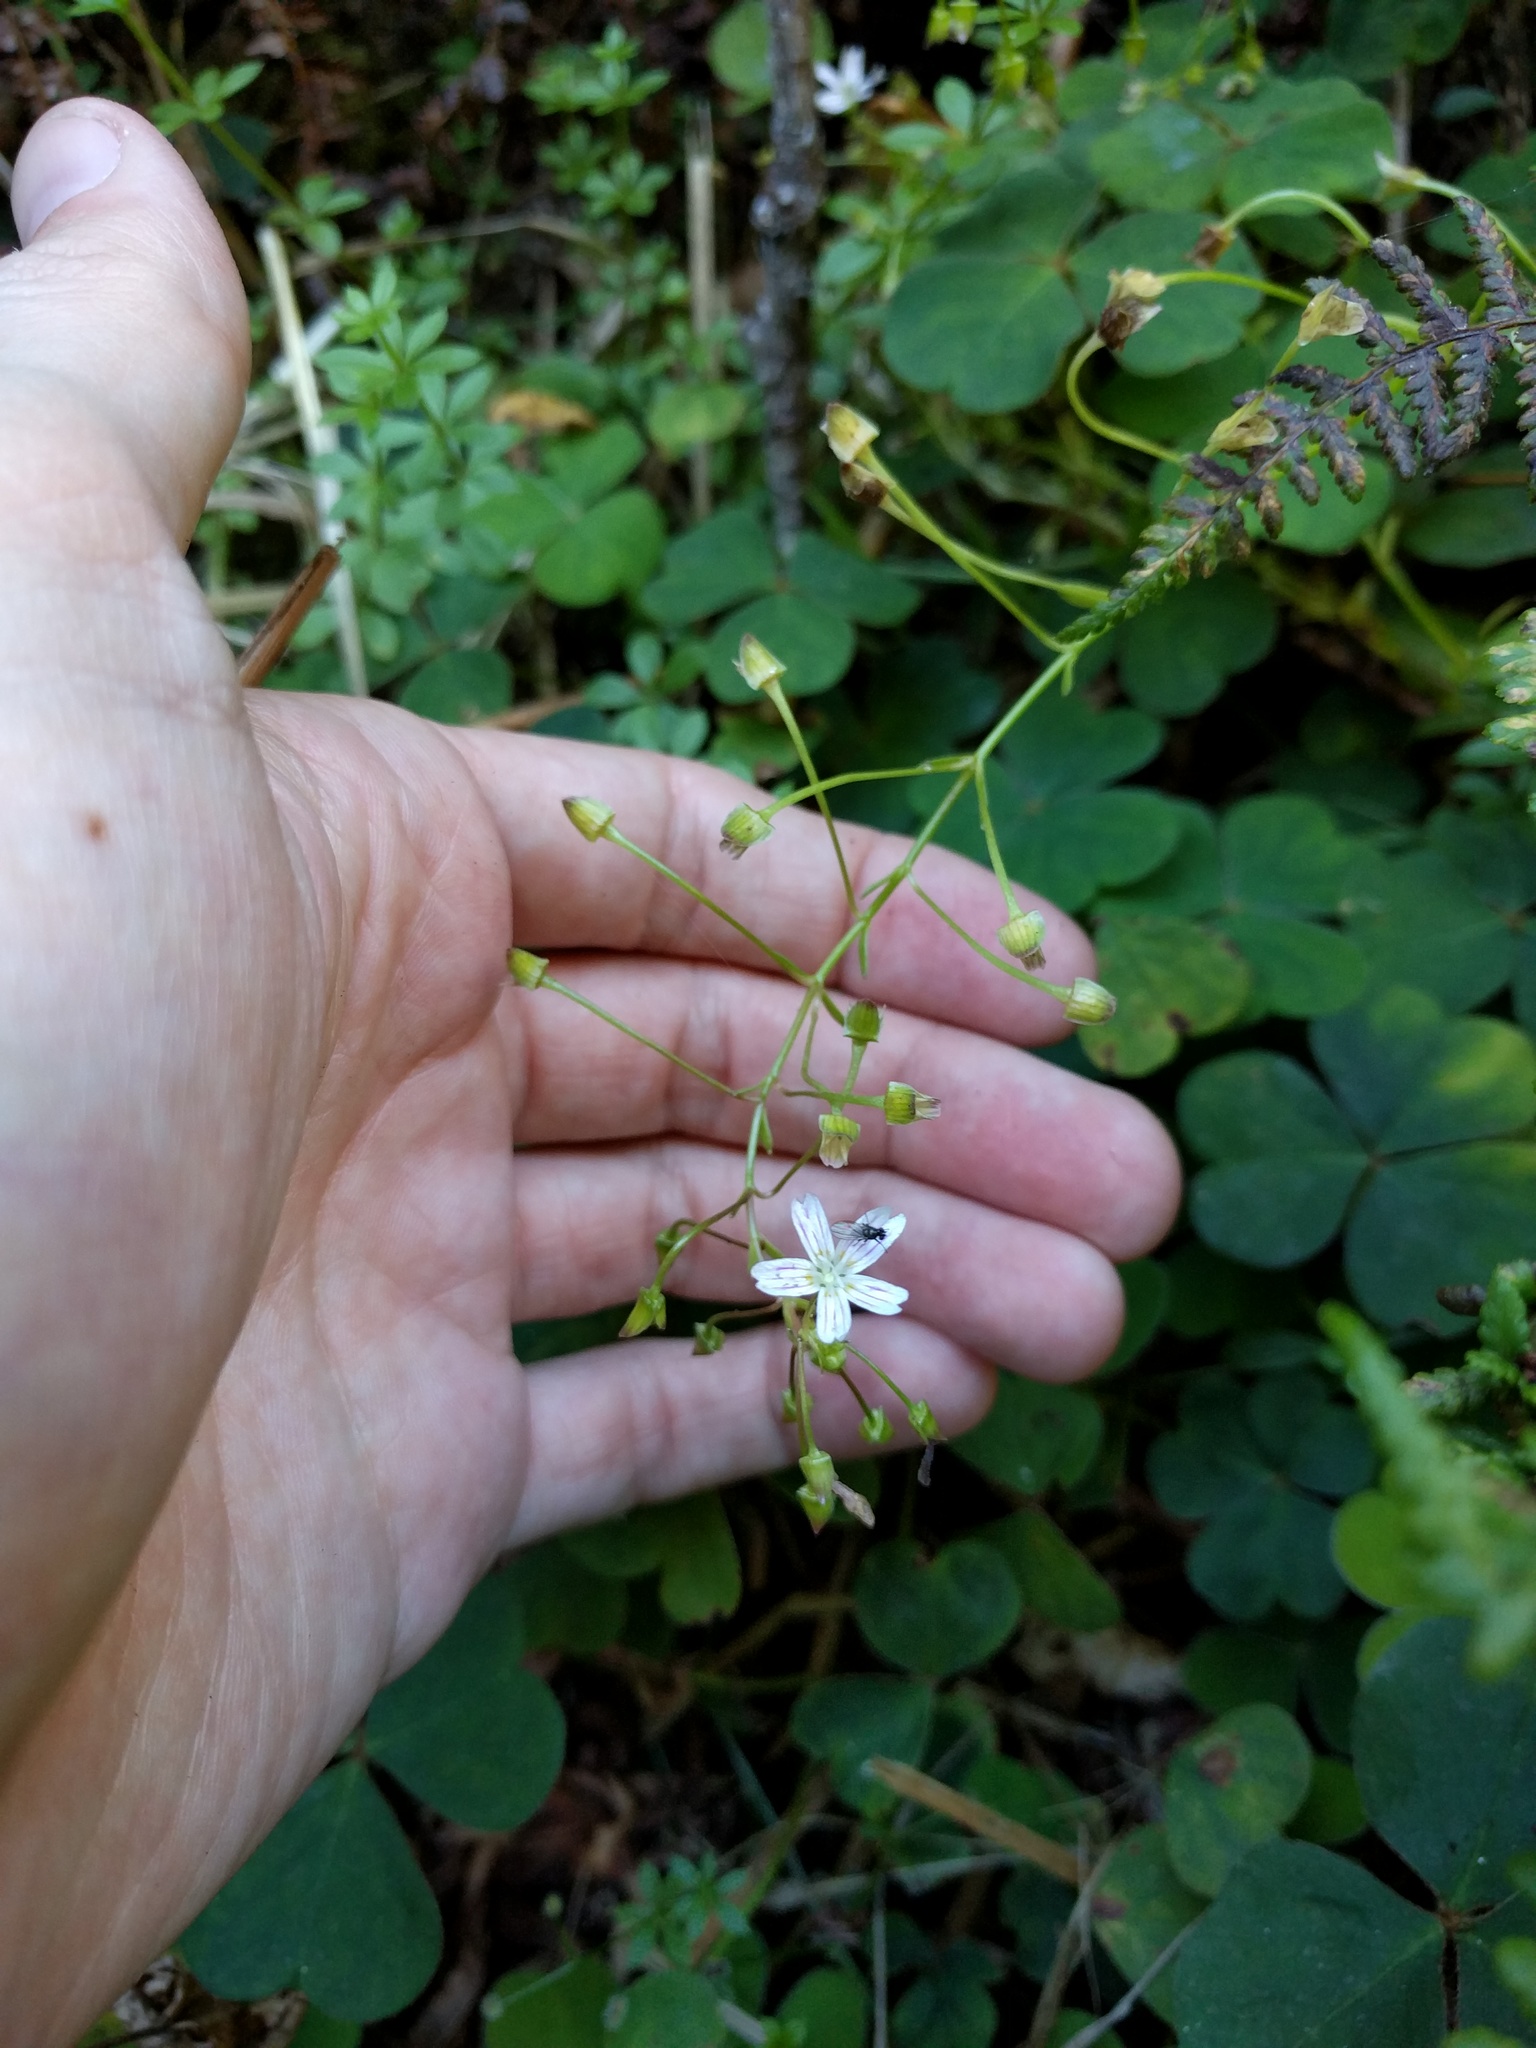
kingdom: Plantae
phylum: Tracheophyta
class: Magnoliopsida
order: Caryophyllales
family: Montiaceae
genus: Claytonia
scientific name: Claytonia sibirica
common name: Pink purslane
